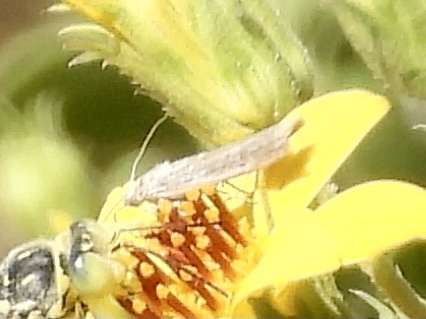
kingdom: Animalia
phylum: Arthropoda
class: Insecta
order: Lepidoptera
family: Pyralidae
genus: Homoeosoma
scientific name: Homoeosoma electella
